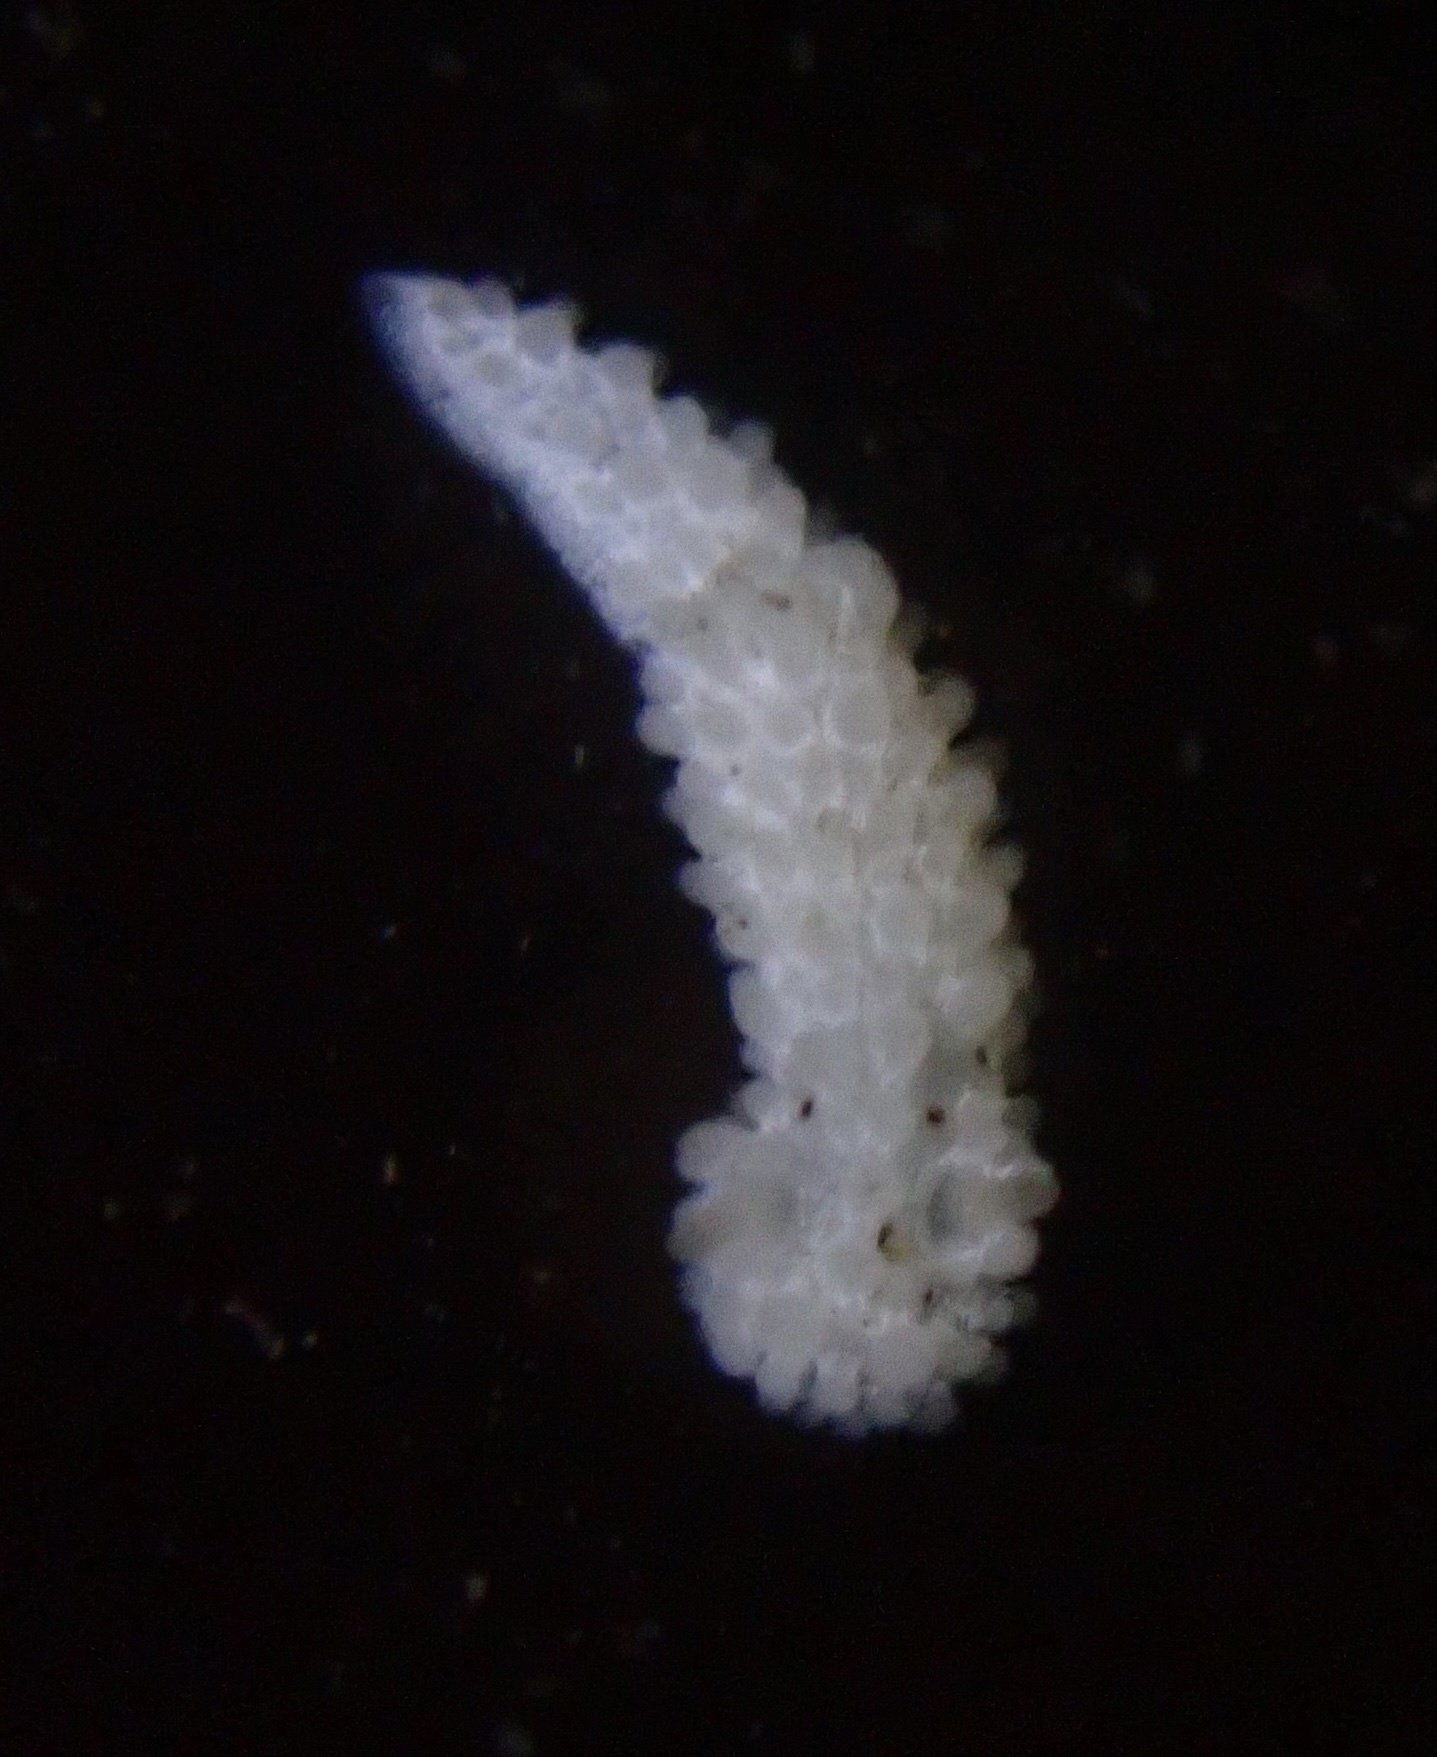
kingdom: Animalia
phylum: Mollusca
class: Gastropoda
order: Nudibranchia
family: Aegiridae
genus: Aegires
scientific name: Aegires albopunctatus
